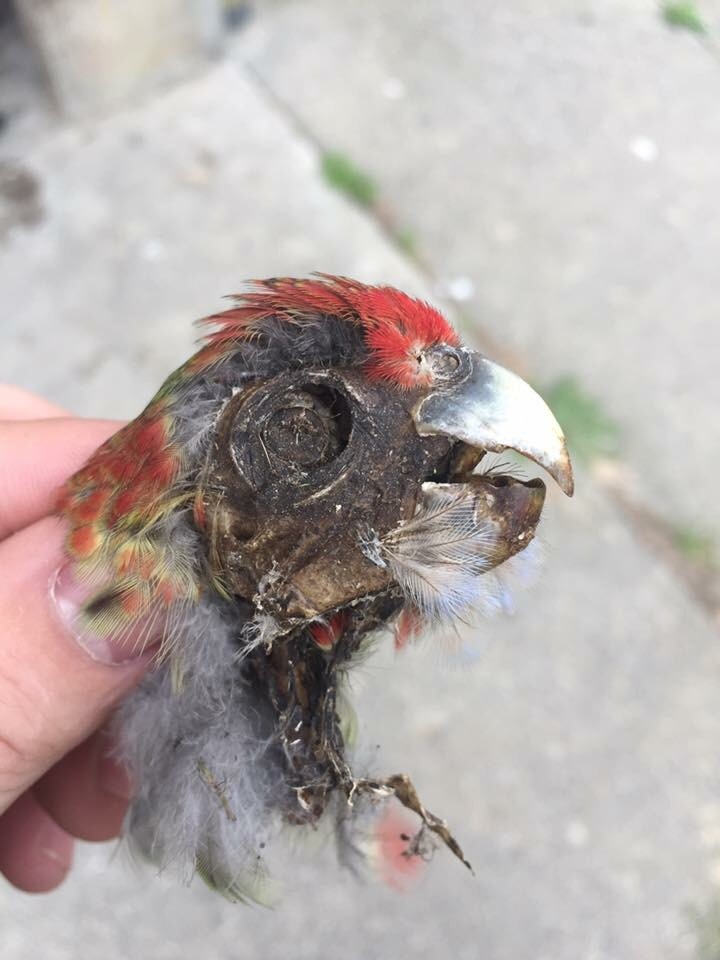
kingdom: Animalia
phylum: Chordata
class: Aves
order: Psittaciformes
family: Psittacidae
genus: Platycercus
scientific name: Platycercus eximius
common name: Eastern rosella
